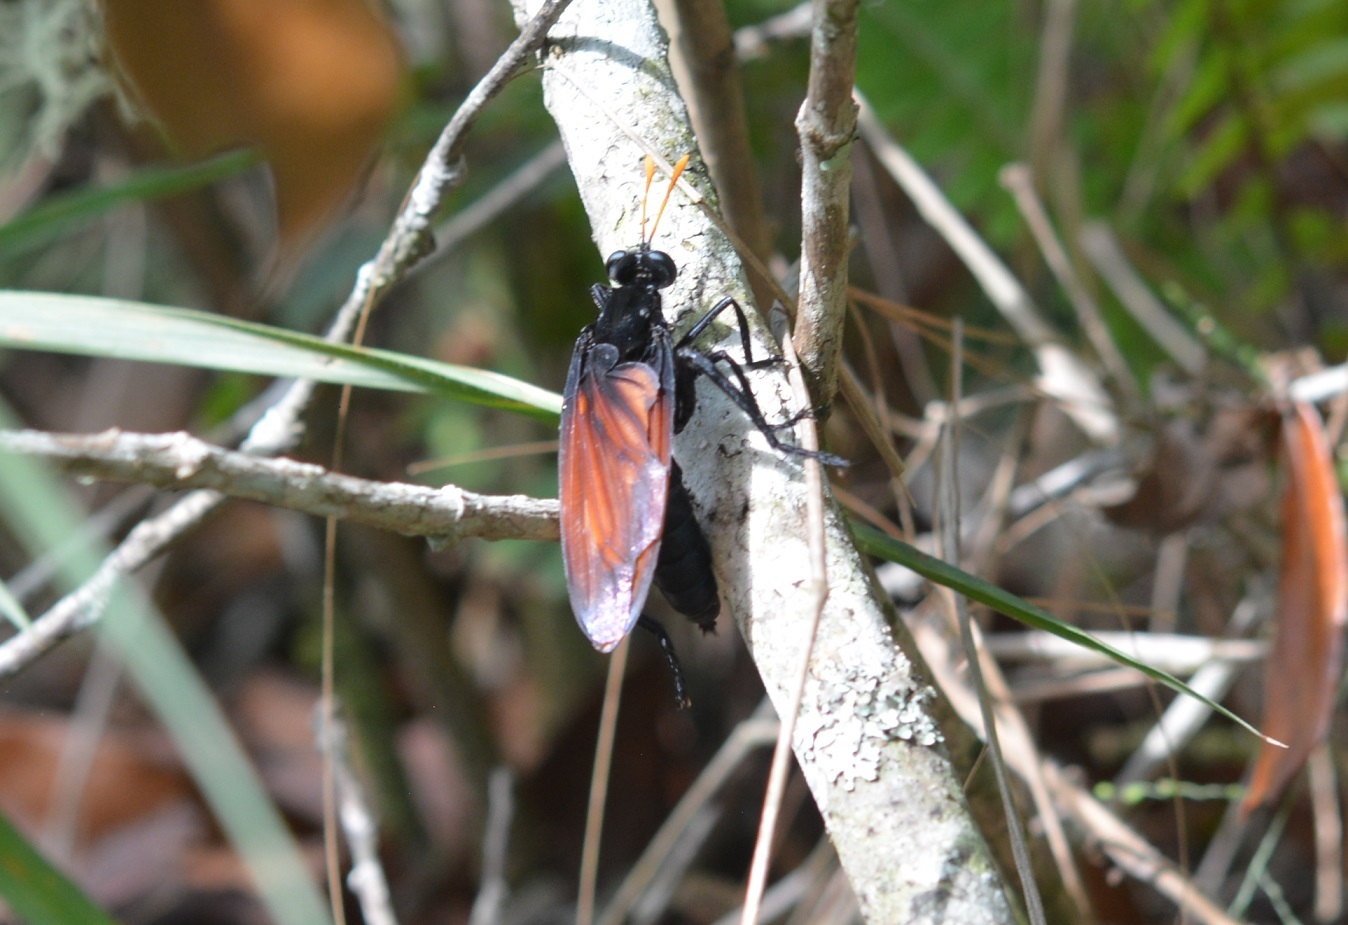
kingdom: Animalia
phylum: Arthropoda
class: Insecta
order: Diptera
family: Mydidae
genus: Mydas
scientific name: Mydas rubidapex
